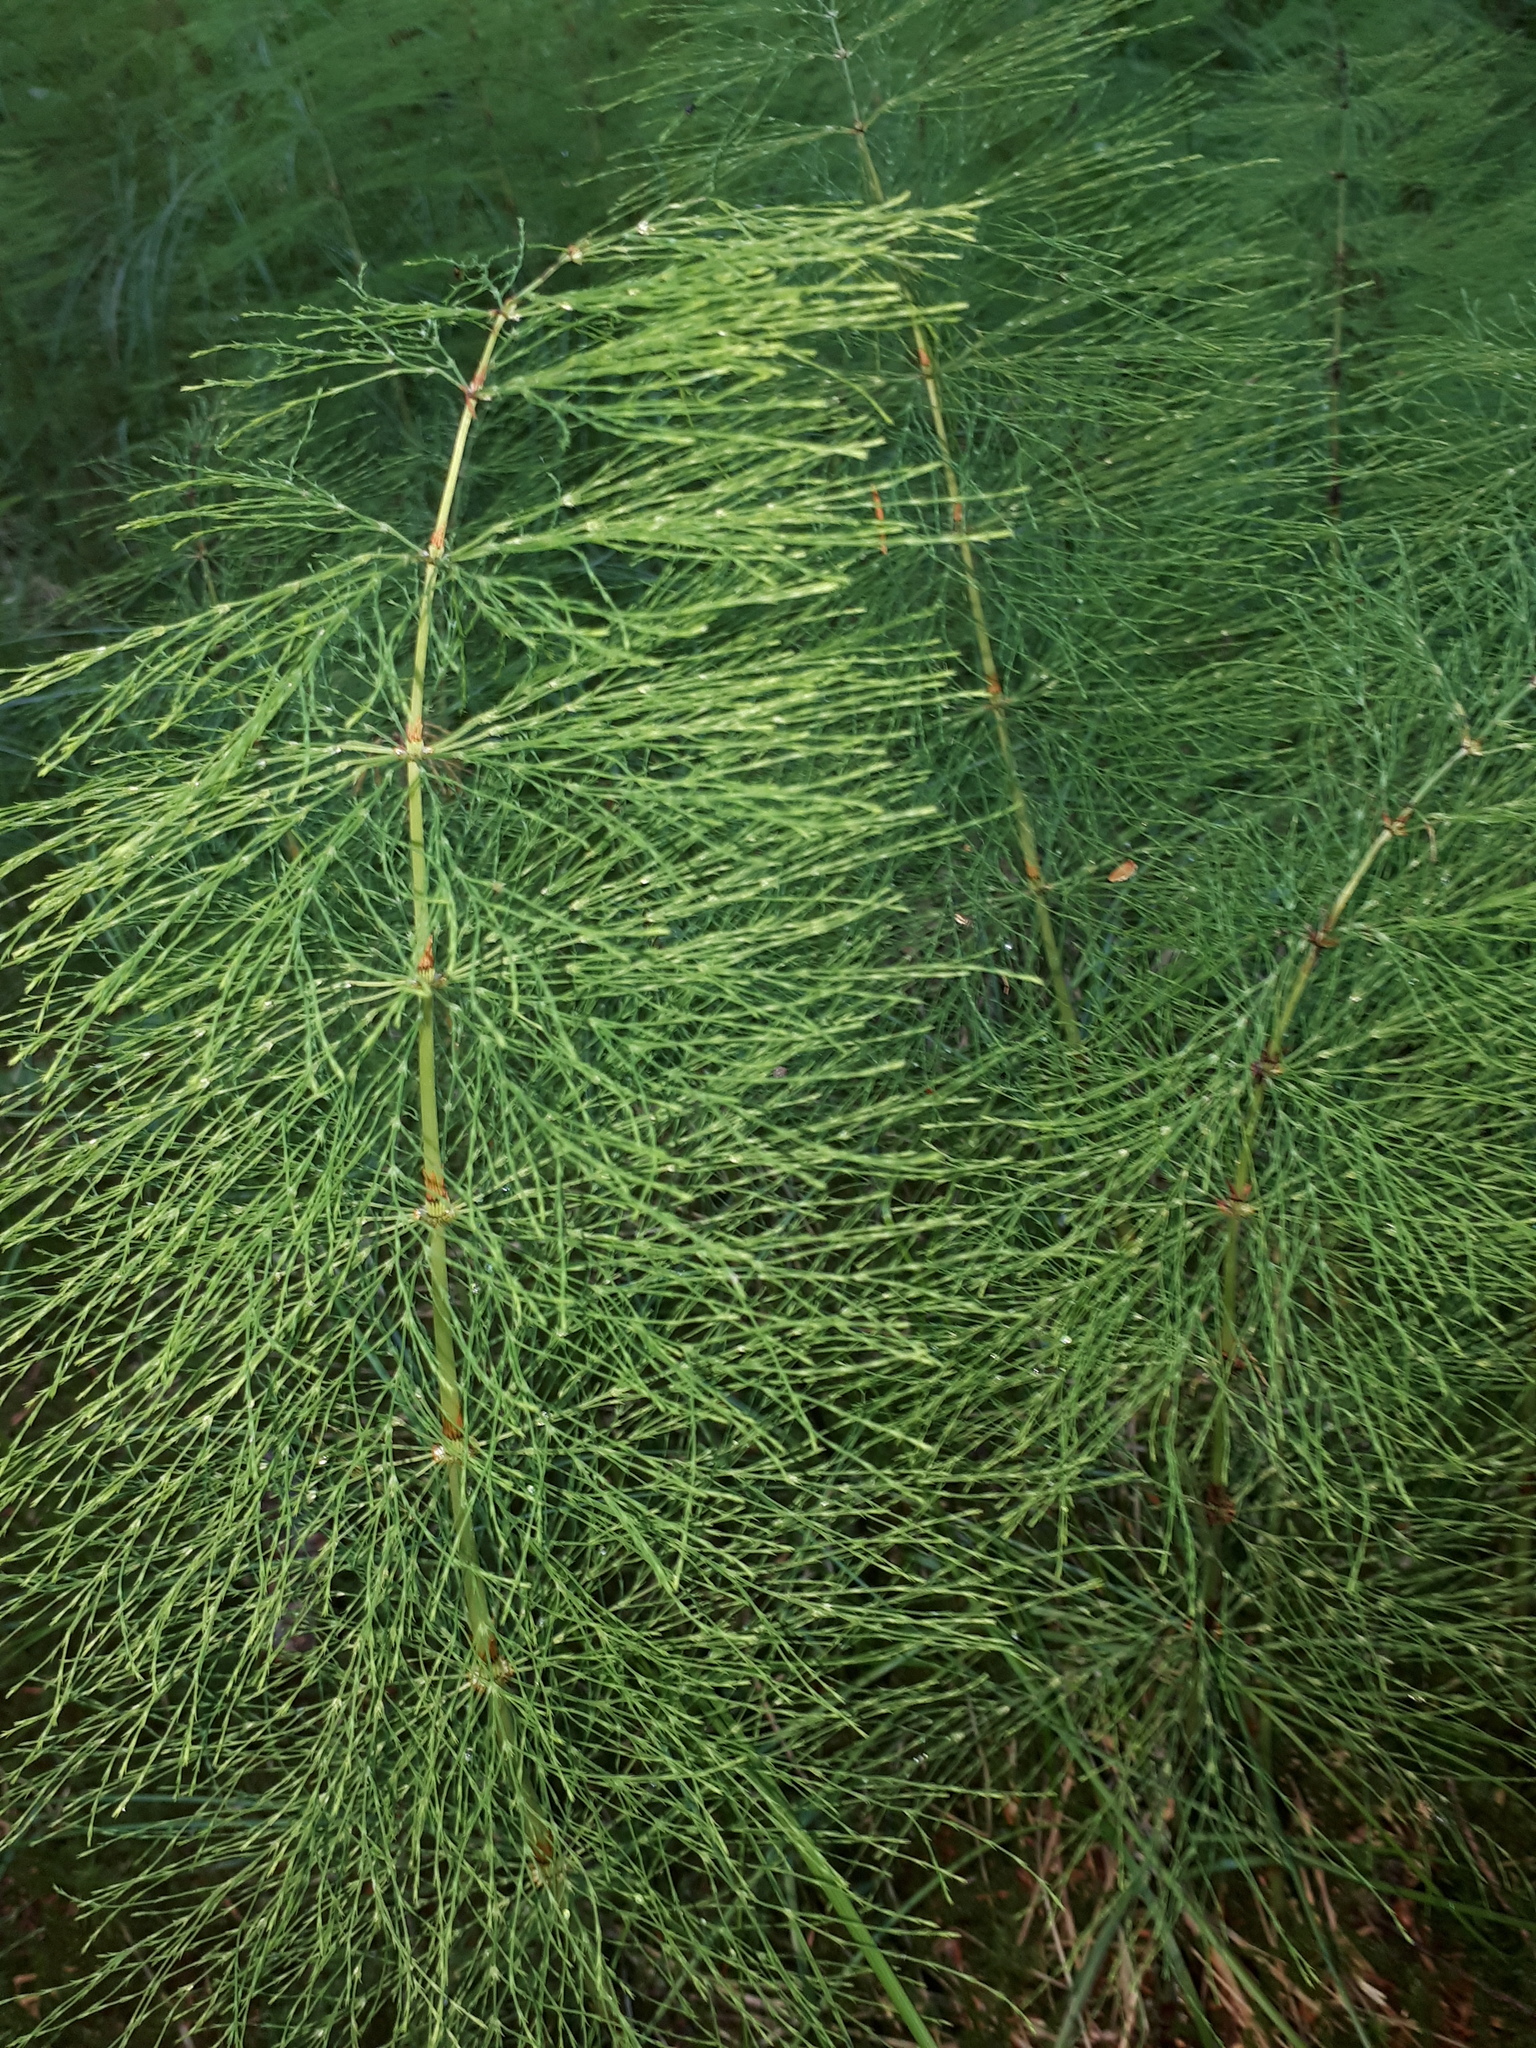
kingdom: Plantae
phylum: Tracheophyta
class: Polypodiopsida
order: Equisetales
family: Equisetaceae
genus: Equisetum
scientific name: Equisetum sylvaticum
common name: Wood horsetail
